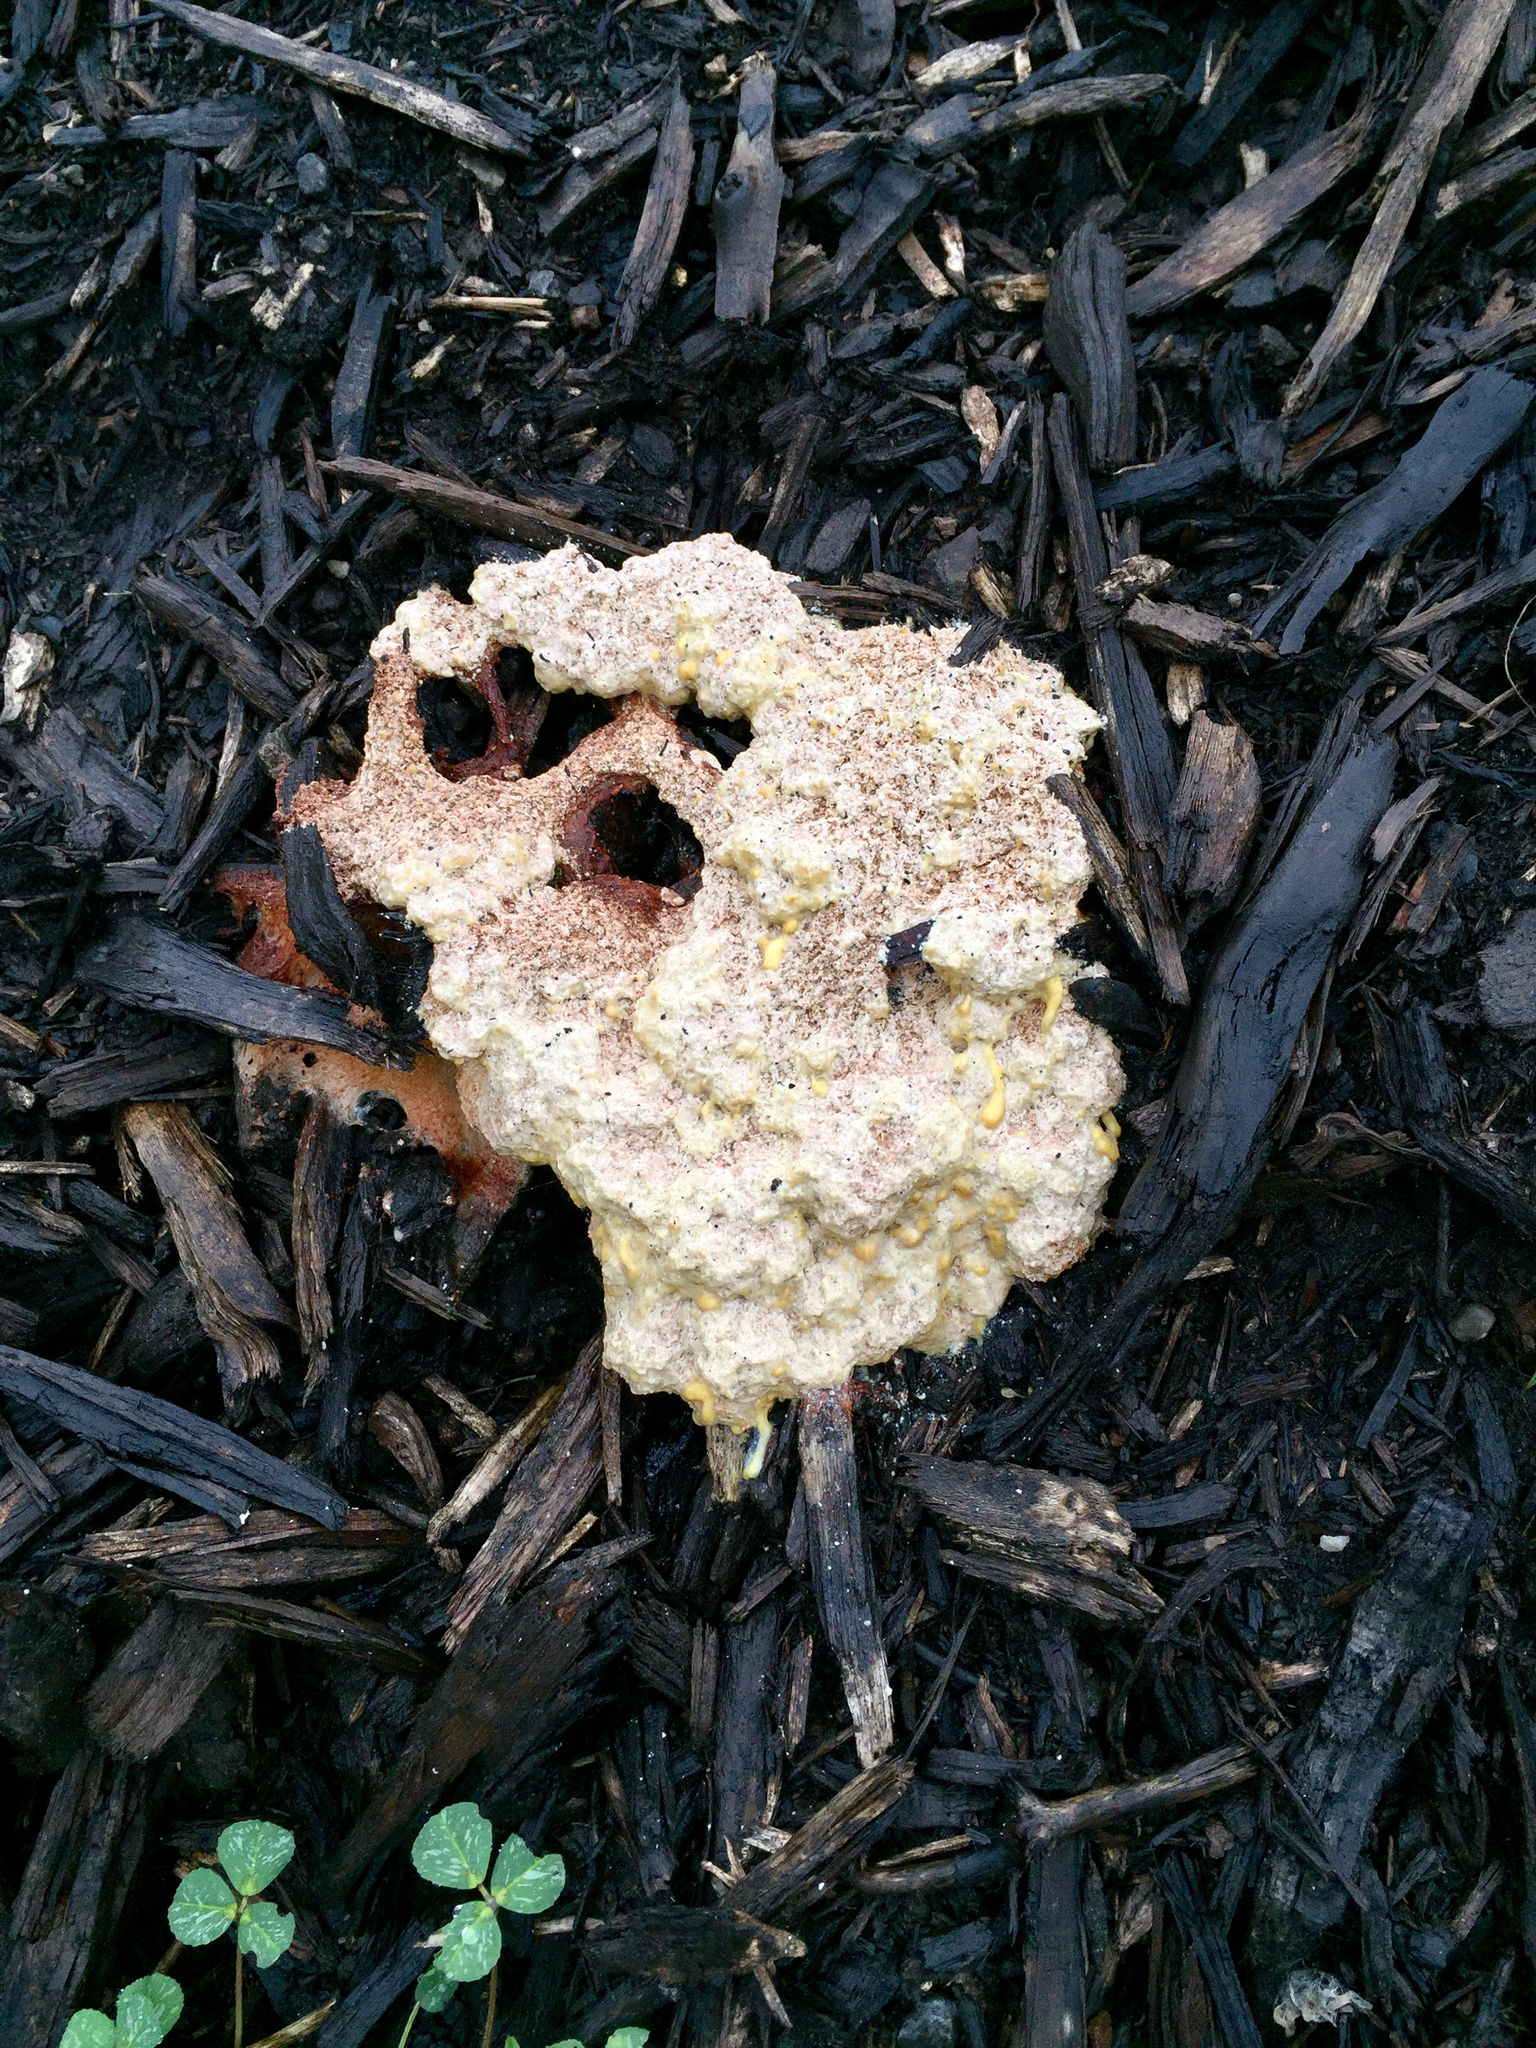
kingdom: Protozoa
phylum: Mycetozoa
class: Myxomycetes
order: Physarales
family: Physaraceae
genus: Fuligo
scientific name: Fuligo septica
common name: Dog vomit slime mold
